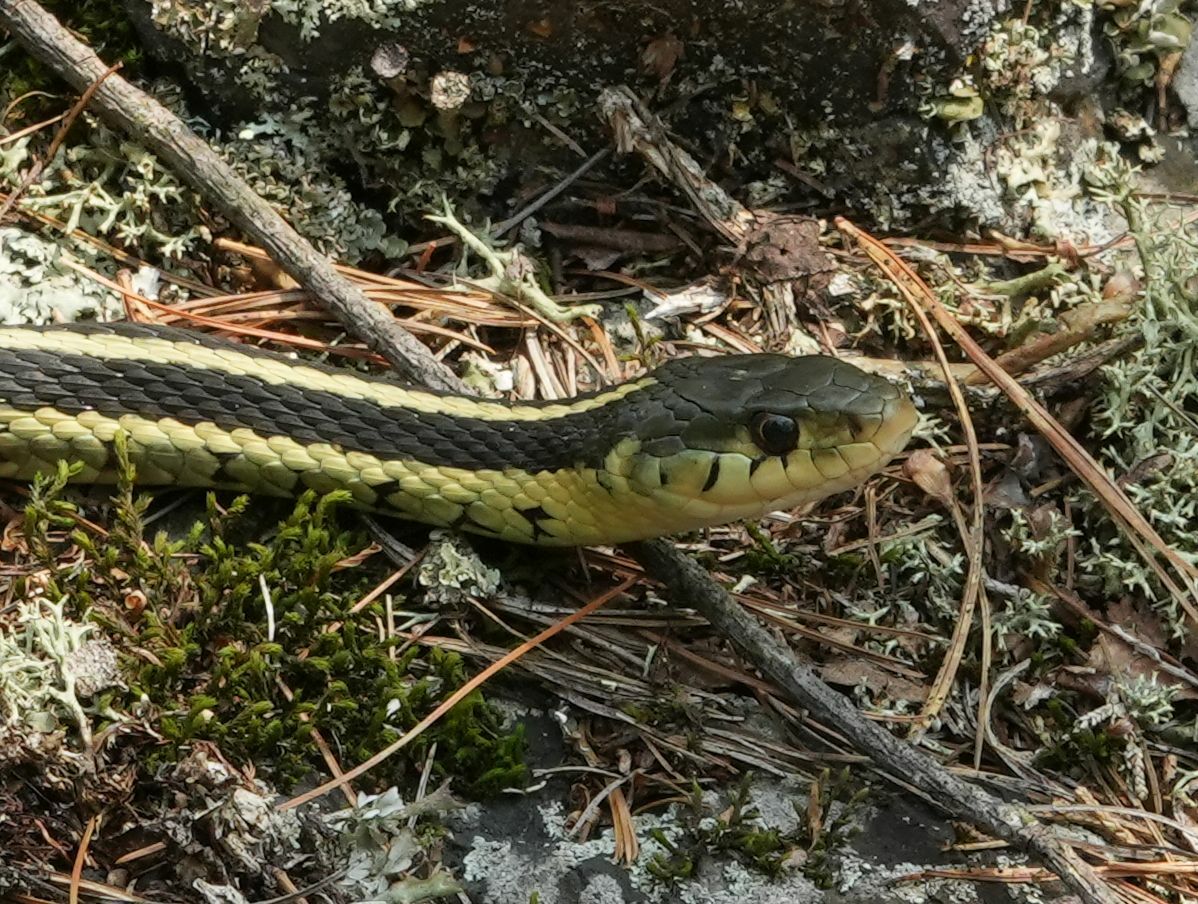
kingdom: Animalia
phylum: Chordata
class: Squamata
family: Colubridae
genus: Thamnophis
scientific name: Thamnophis sirtalis
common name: Common garter snake
